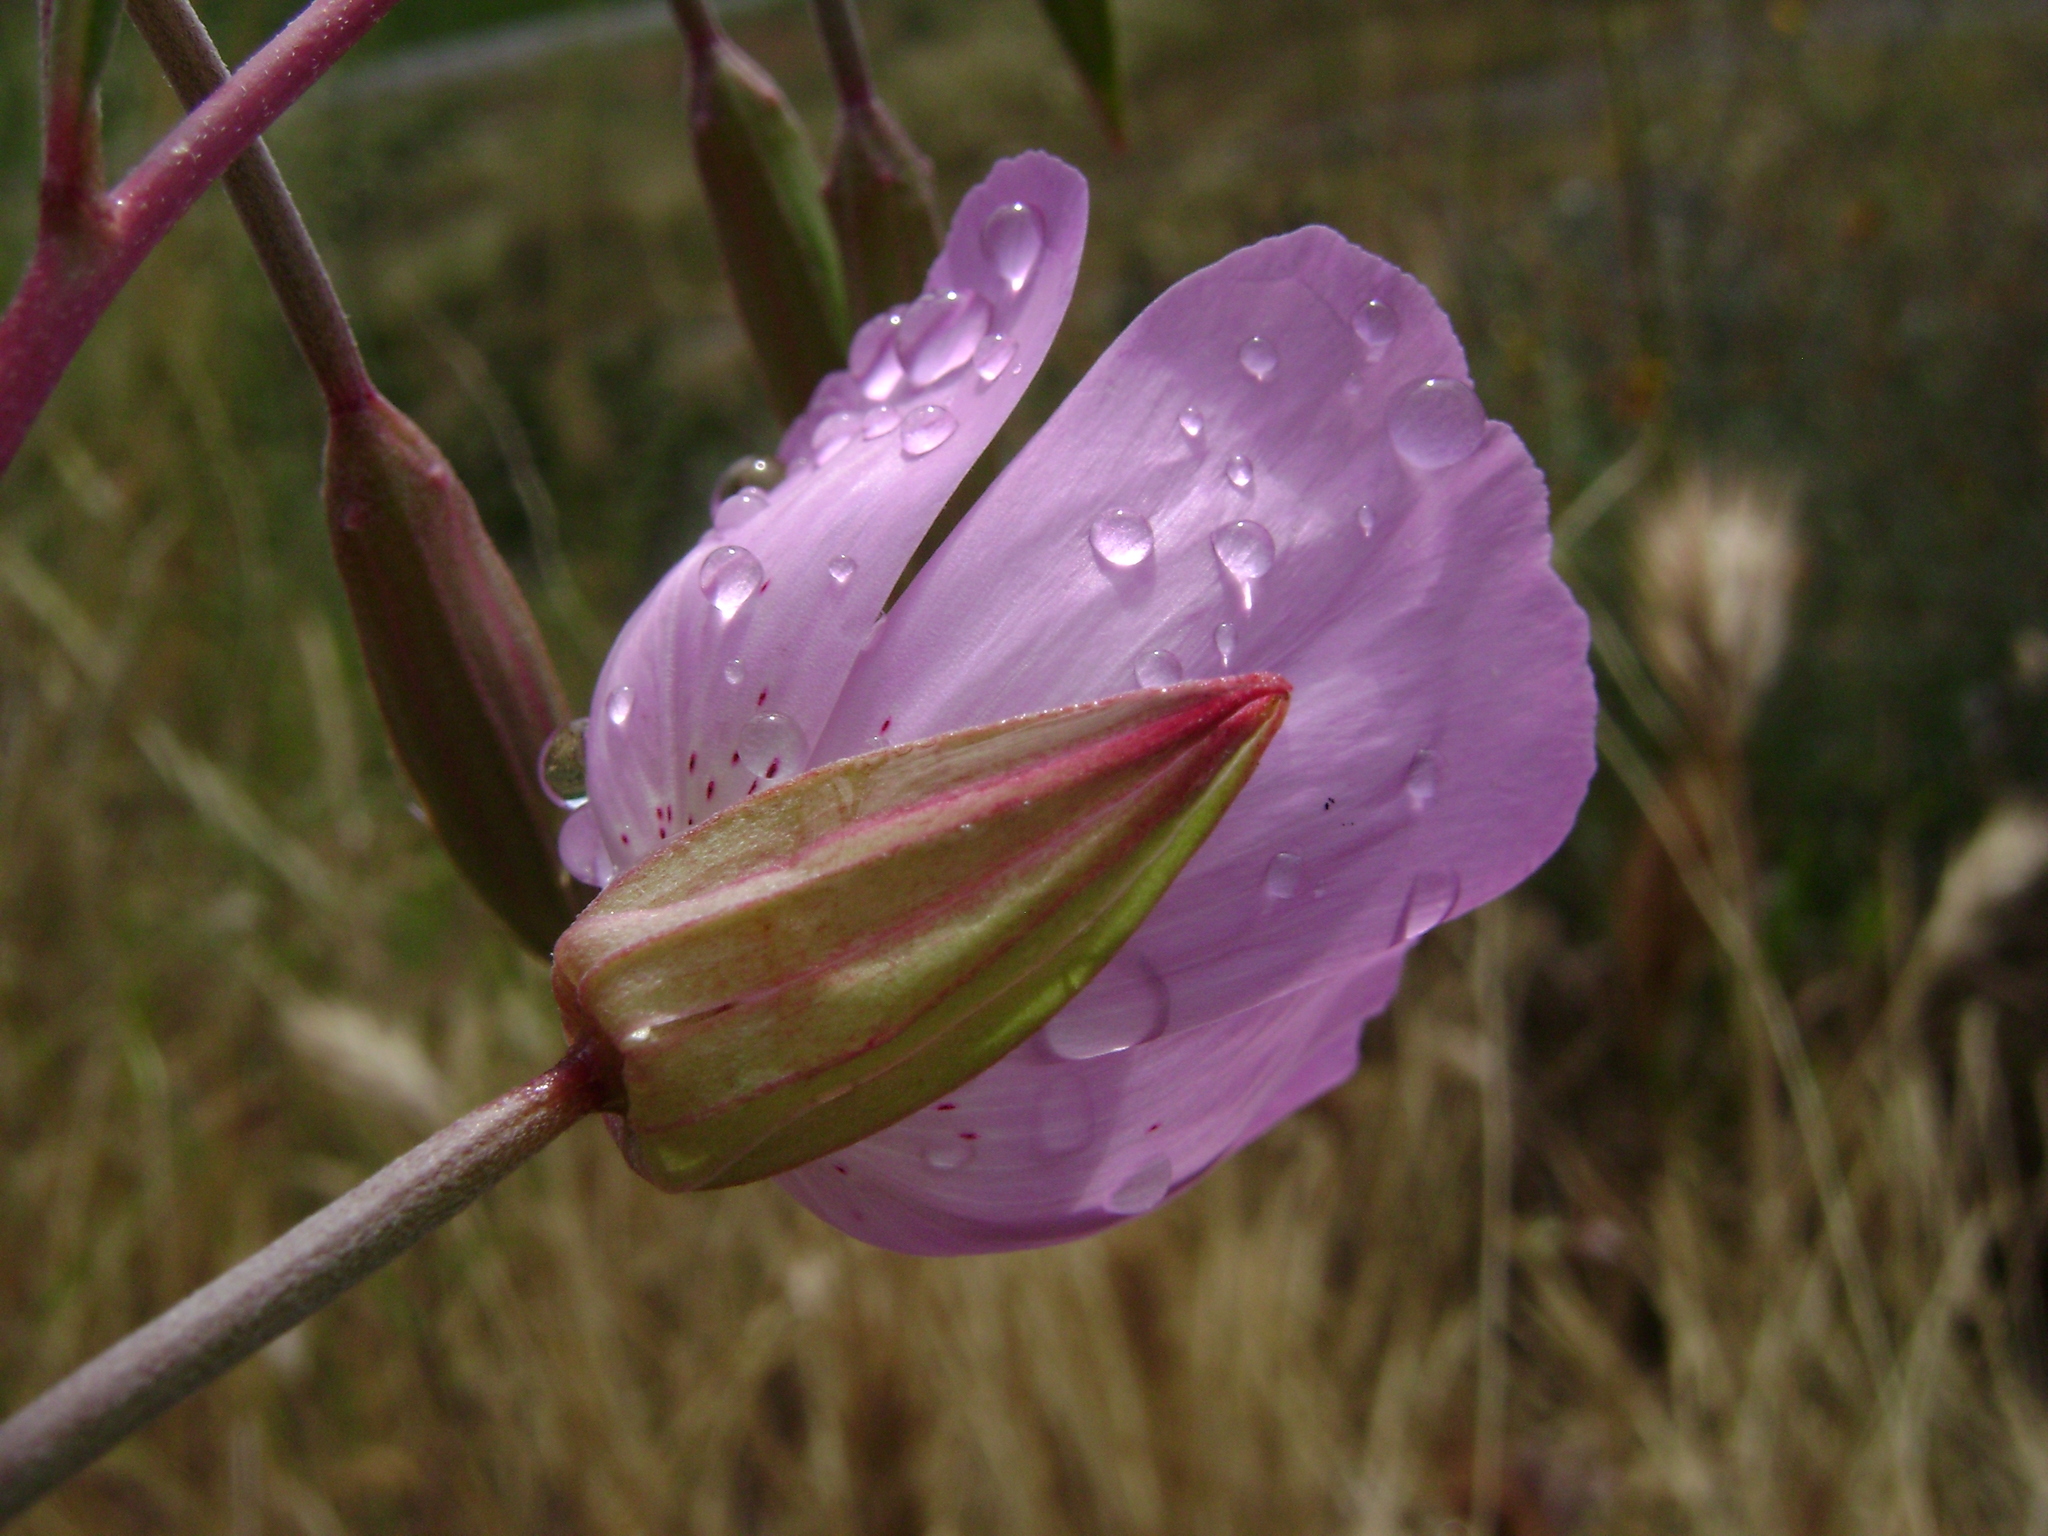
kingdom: Plantae
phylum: Tracheophyta
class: Magnoliopsida
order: Myrtales
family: Onagraceae
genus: Clarkia
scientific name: Clarkia bottae
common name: Punch-bowl godetia
